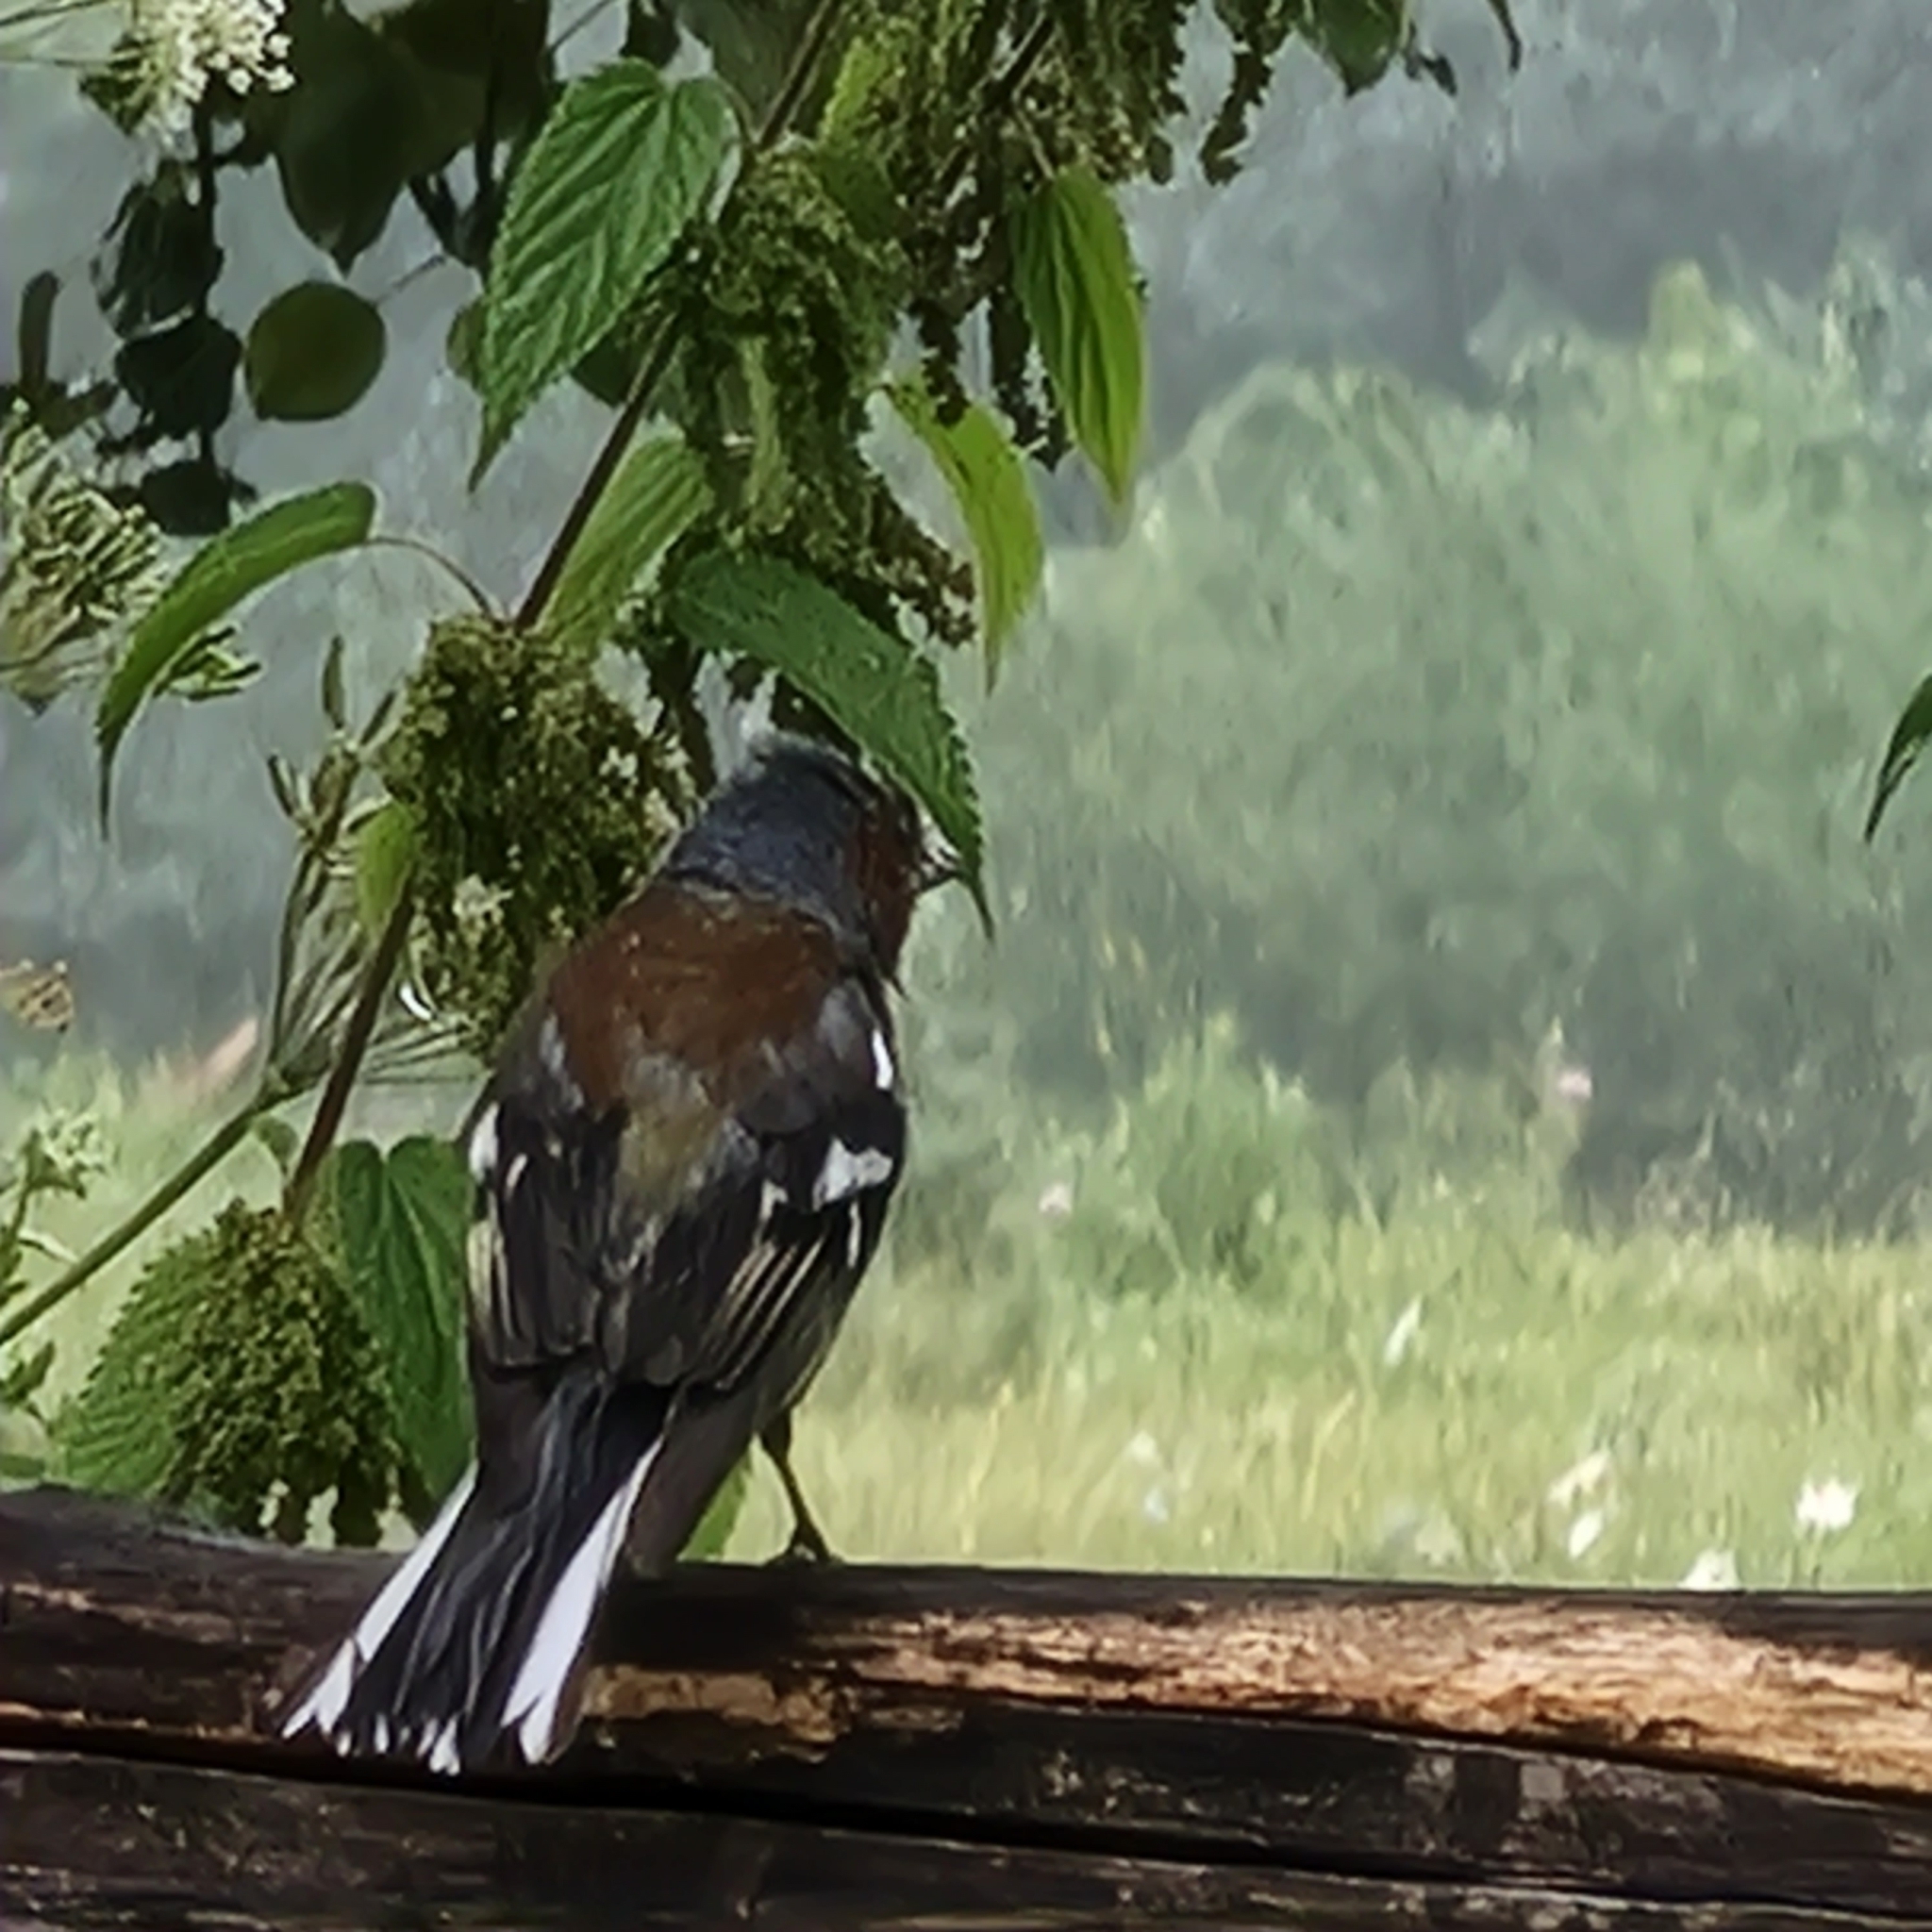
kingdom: Animalia
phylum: Chordata
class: Aves
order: Passeriformes
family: Fringillidae
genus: Fringilla
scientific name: Fringilla coelebs
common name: Common chaffinch
